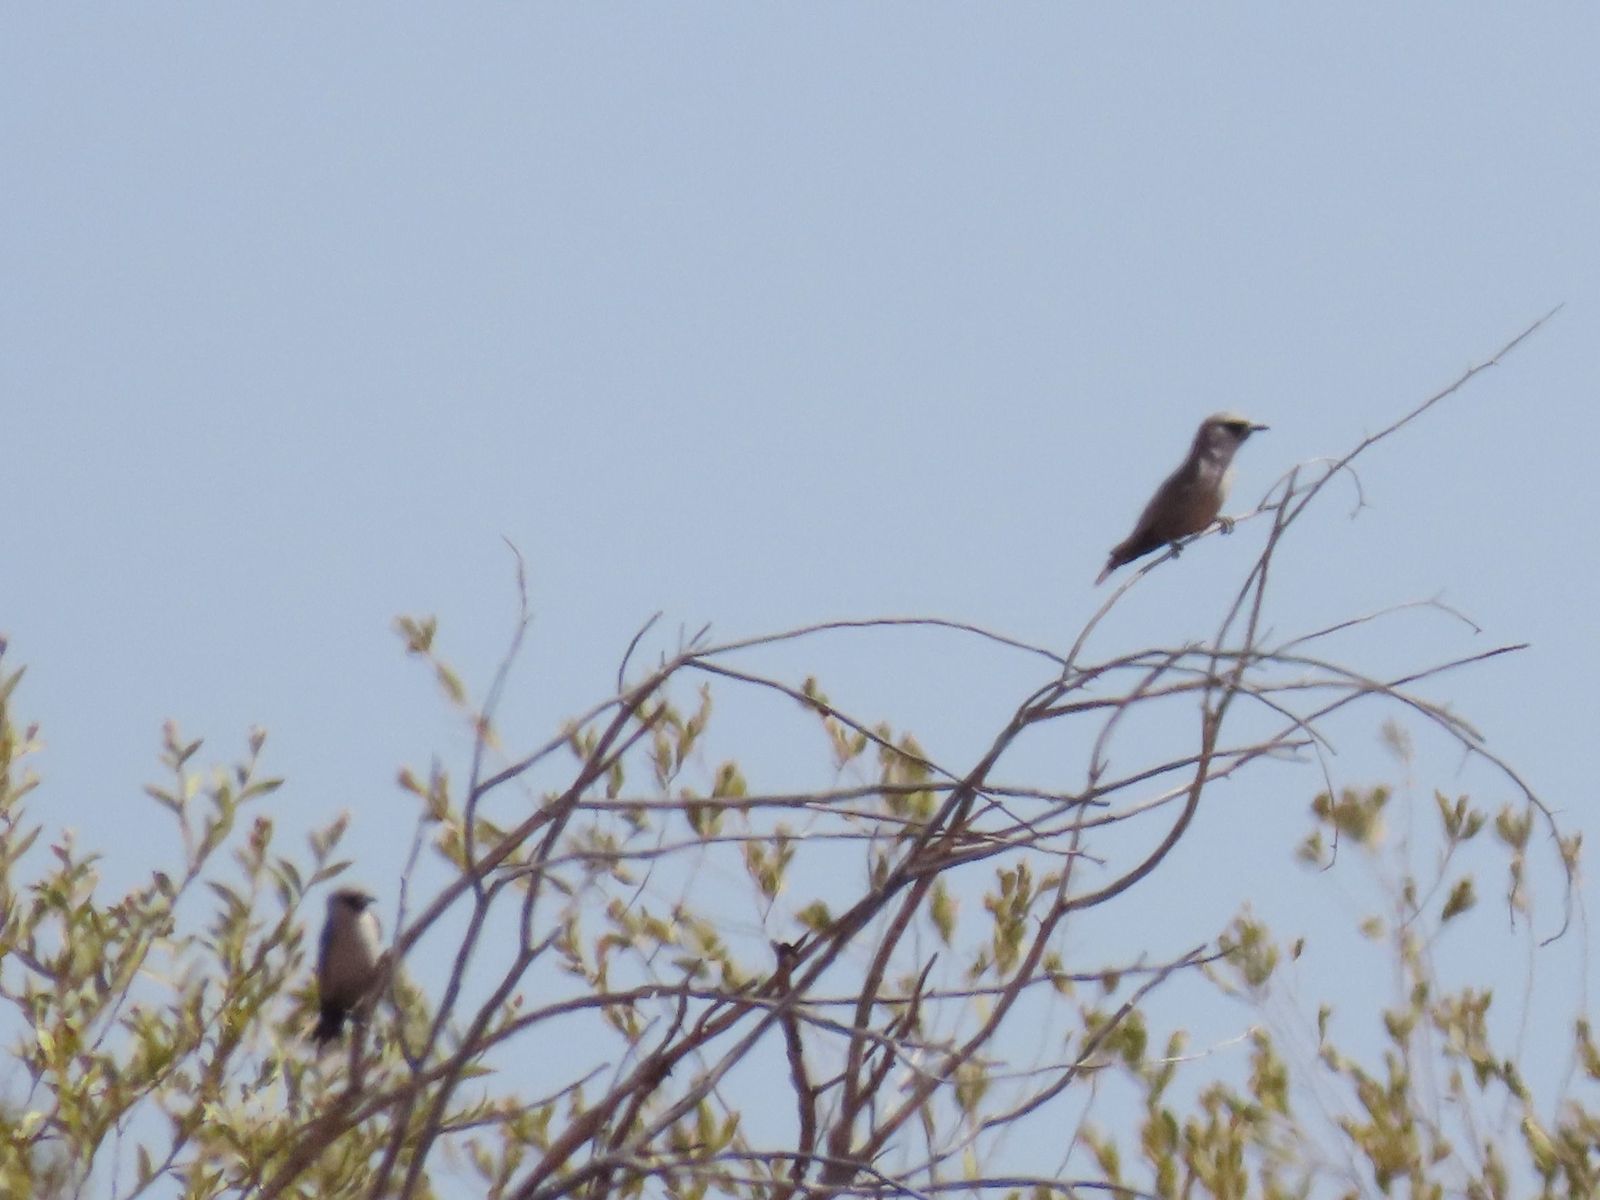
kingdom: Animalia
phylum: Chordata
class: Aves
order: Passeriformes
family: Artamidae
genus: Artamus
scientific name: Artamus cinereus
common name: Black-faced woodswallow
